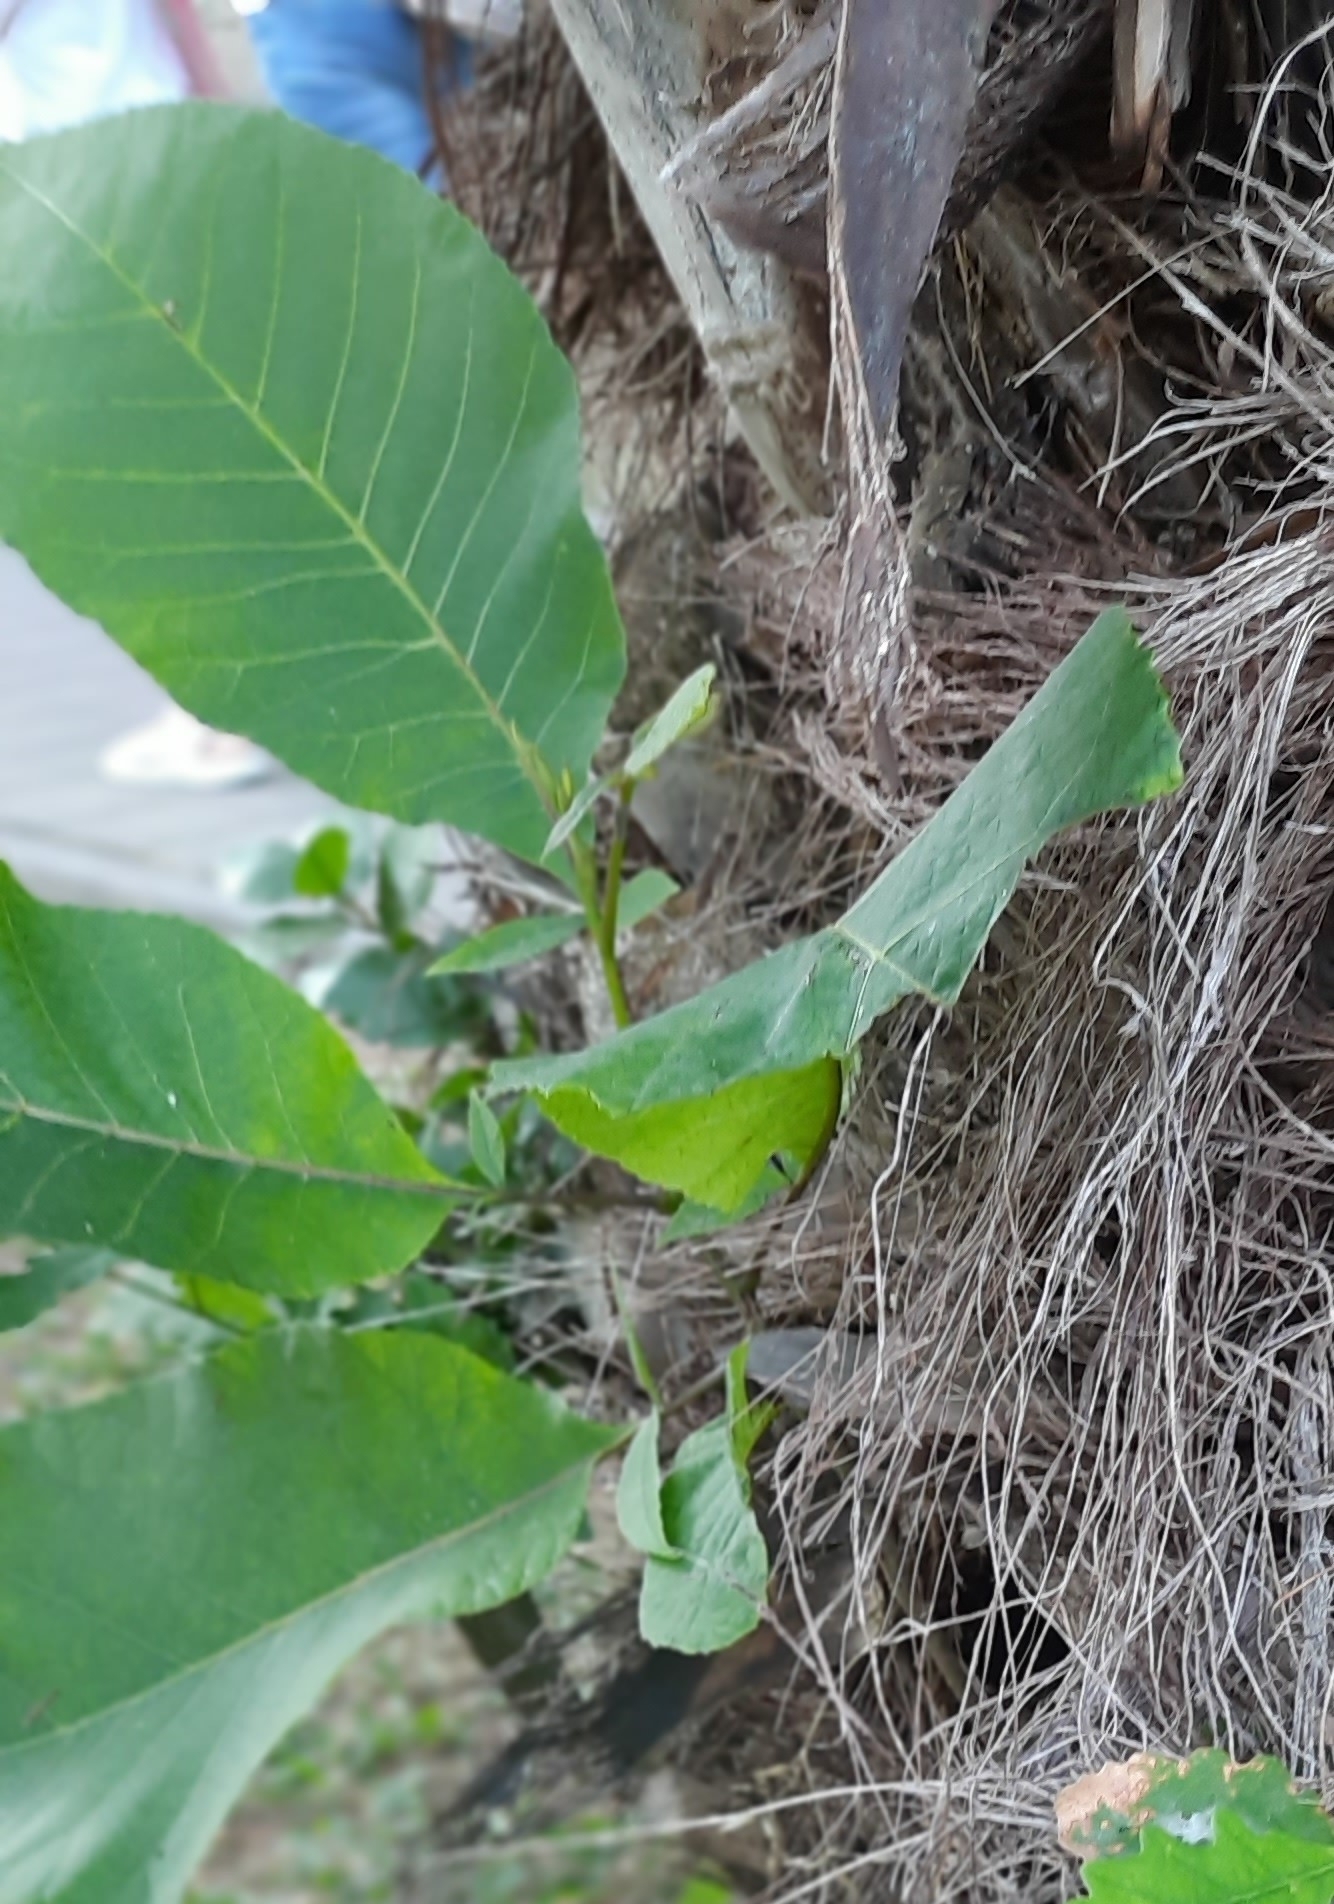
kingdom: Plantae
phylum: Tracheophyta
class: Magnoliopsida
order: Sapindales
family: Anacardiaceae
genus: Cotinus
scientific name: Cotinus coggygria
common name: Smoke-tree
